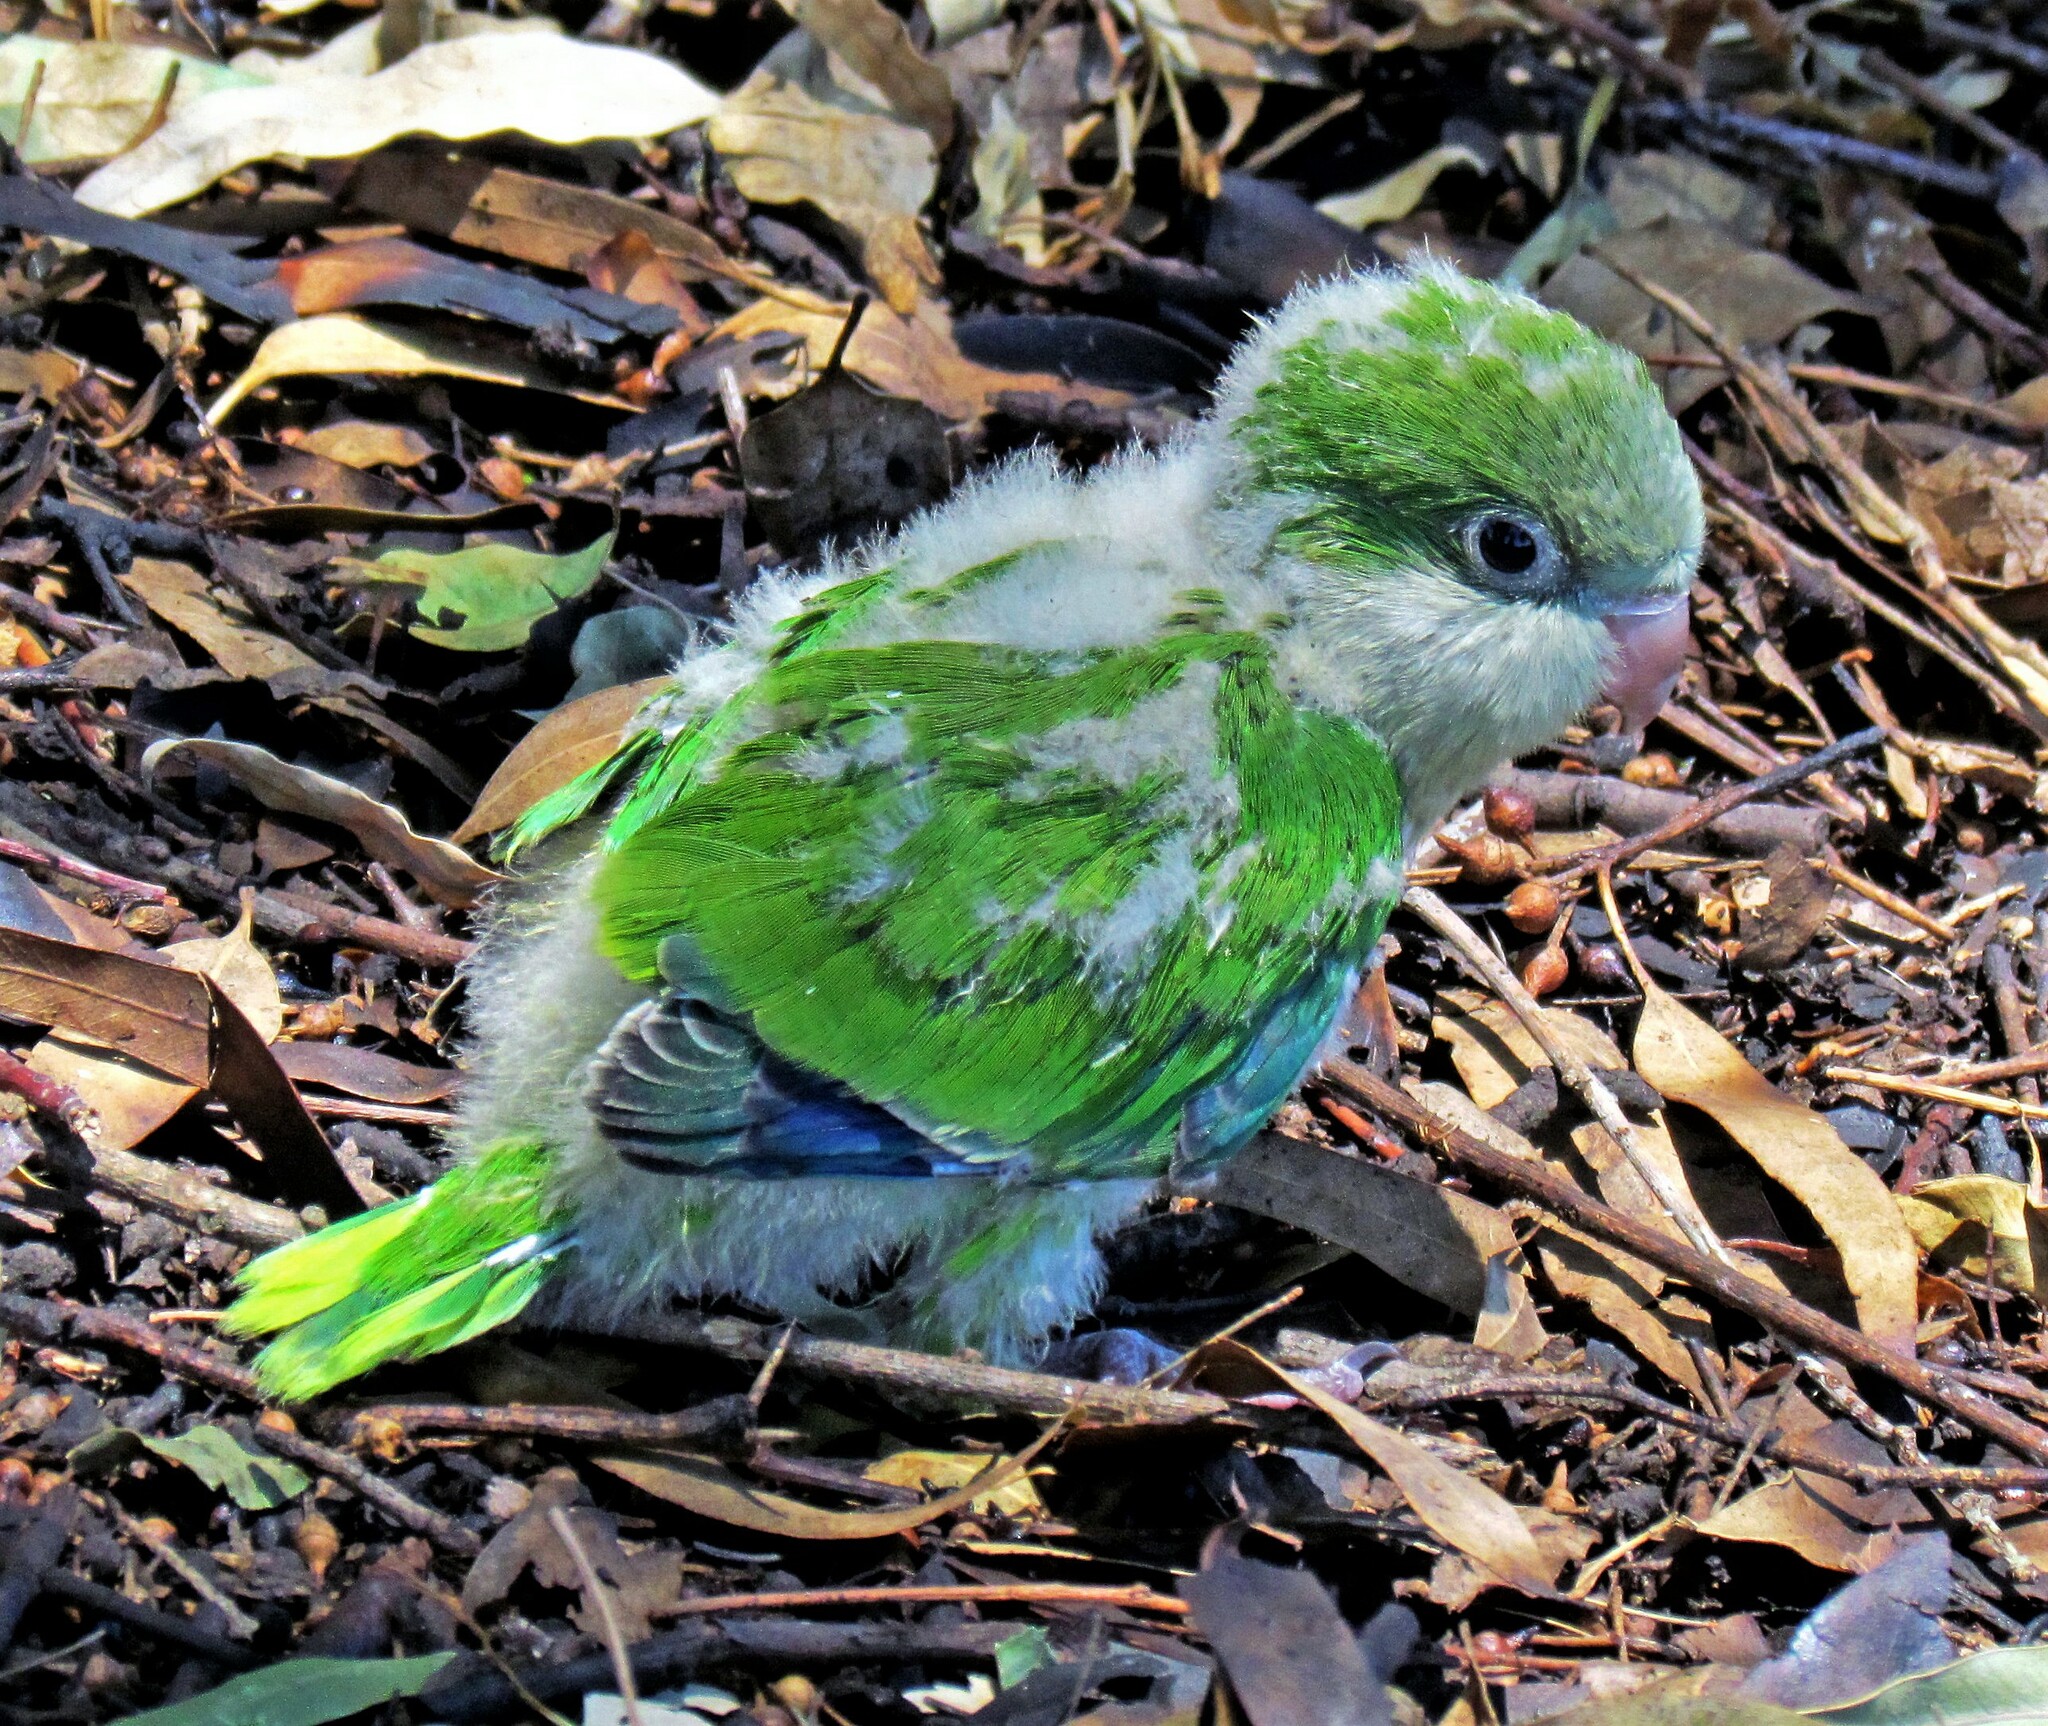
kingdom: Animalia
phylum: Chordata
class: Aves
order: Psittaciformes
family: Psittacidae
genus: Myiopsitta
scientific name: Myiopsitta monachus
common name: Monk parakeet
